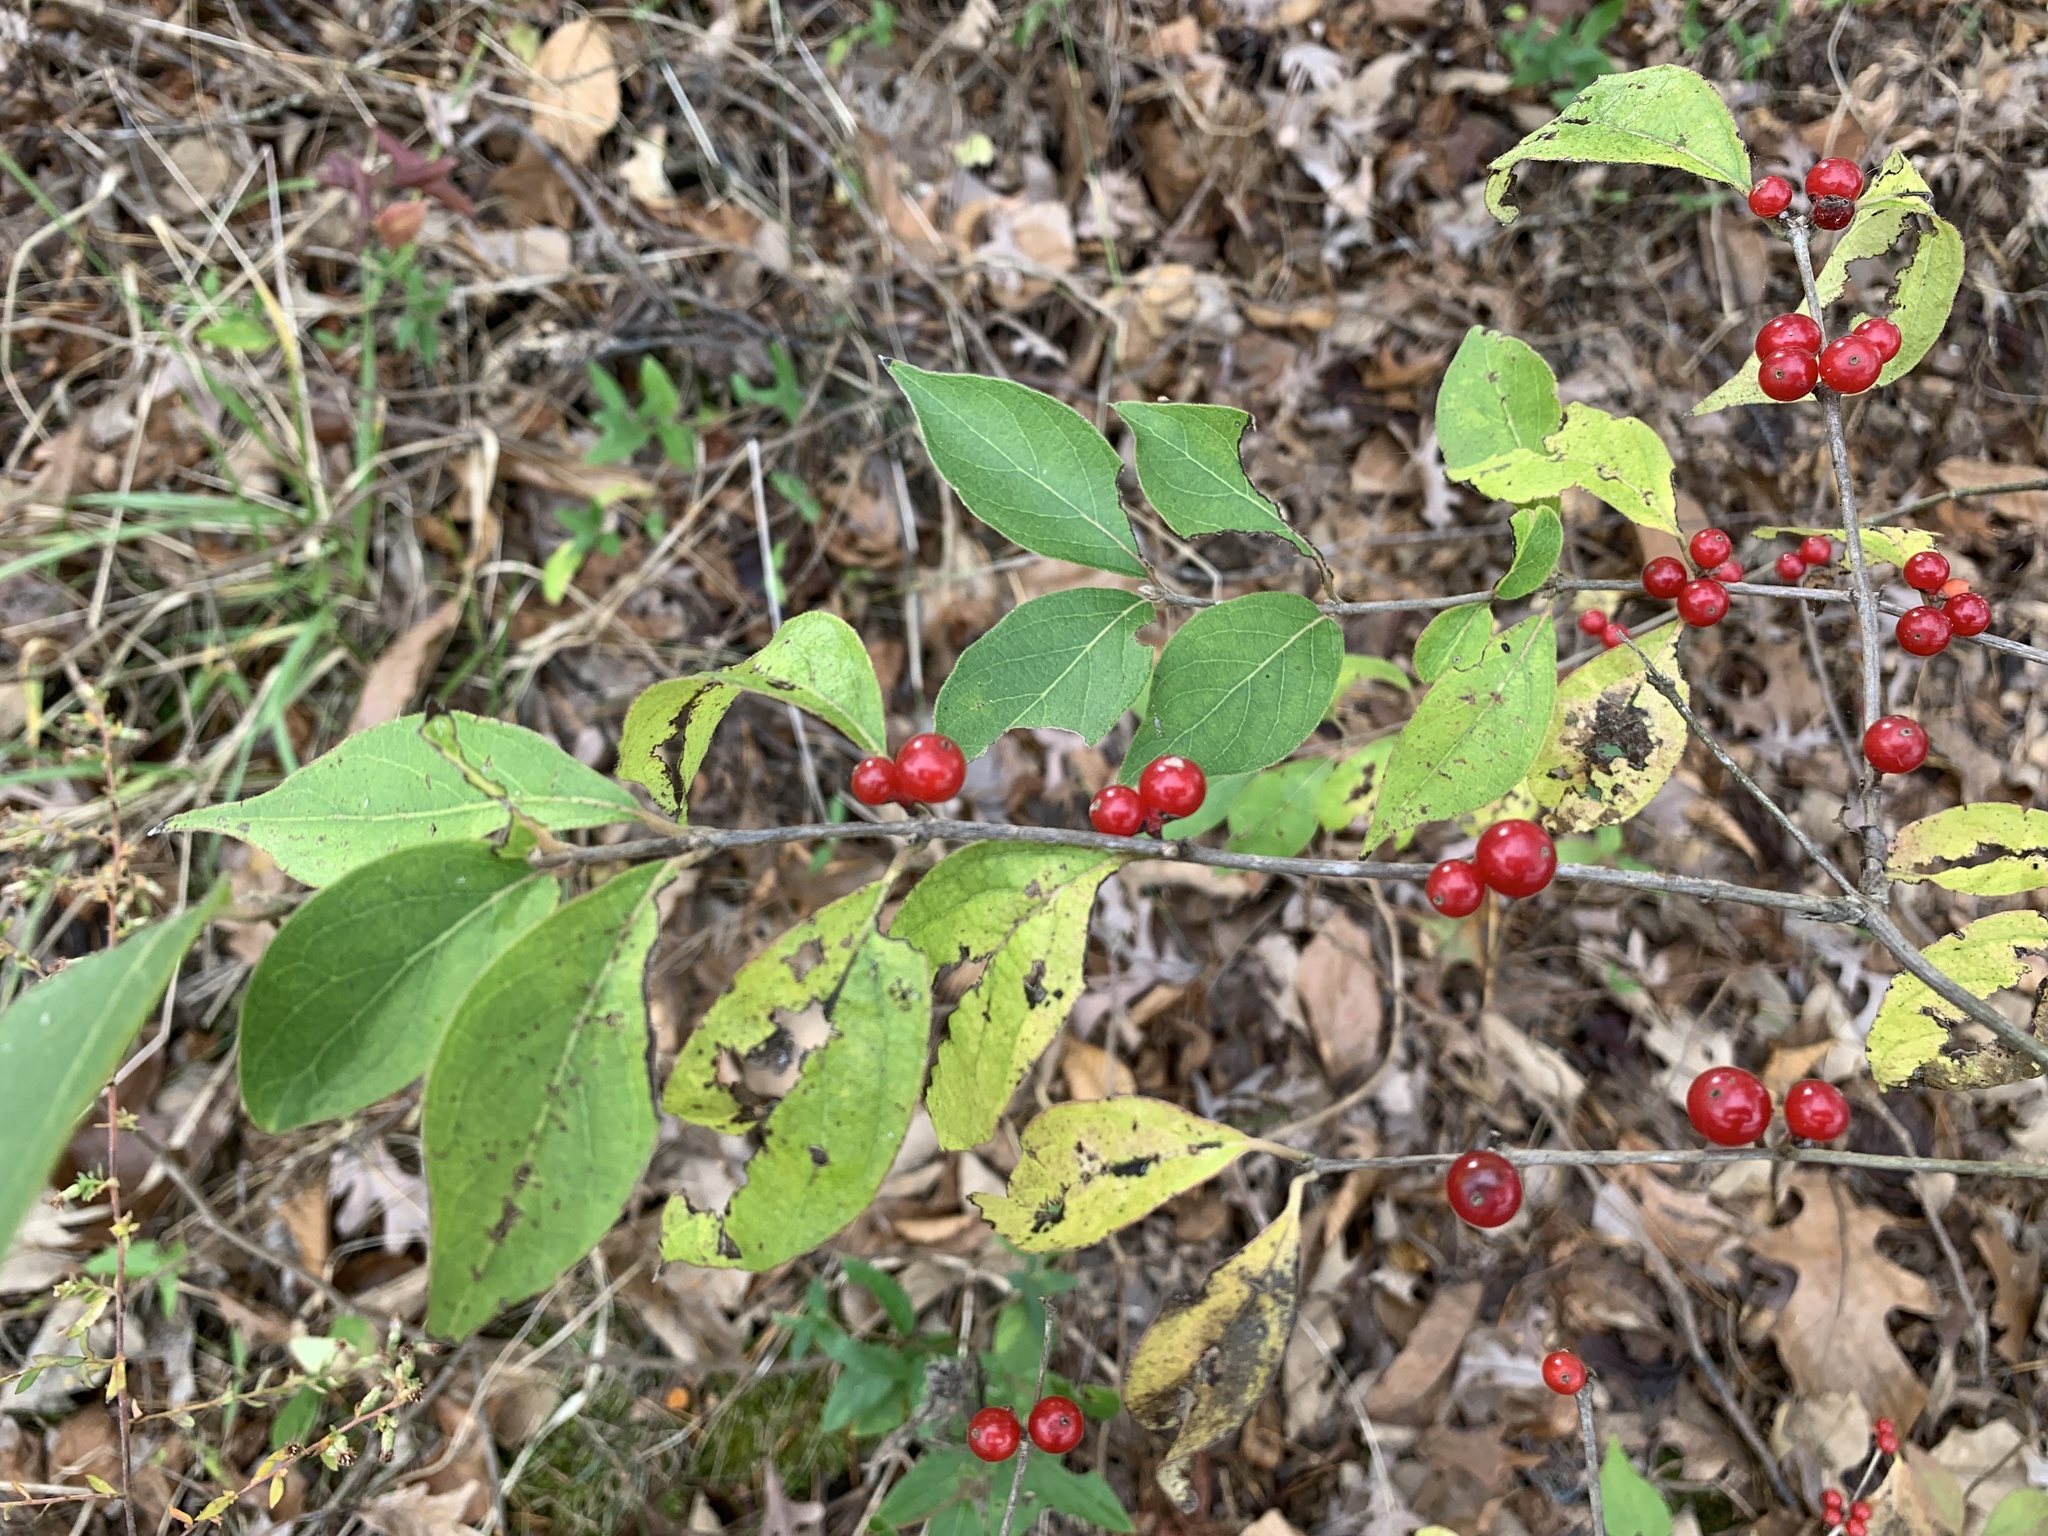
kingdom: Plantae
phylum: Tracheophyta
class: Magnoliopsida
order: Dipsacales
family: Caprifoliaceae
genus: Lonicera
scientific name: Lonicera maackii
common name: Amur honeysuckle
